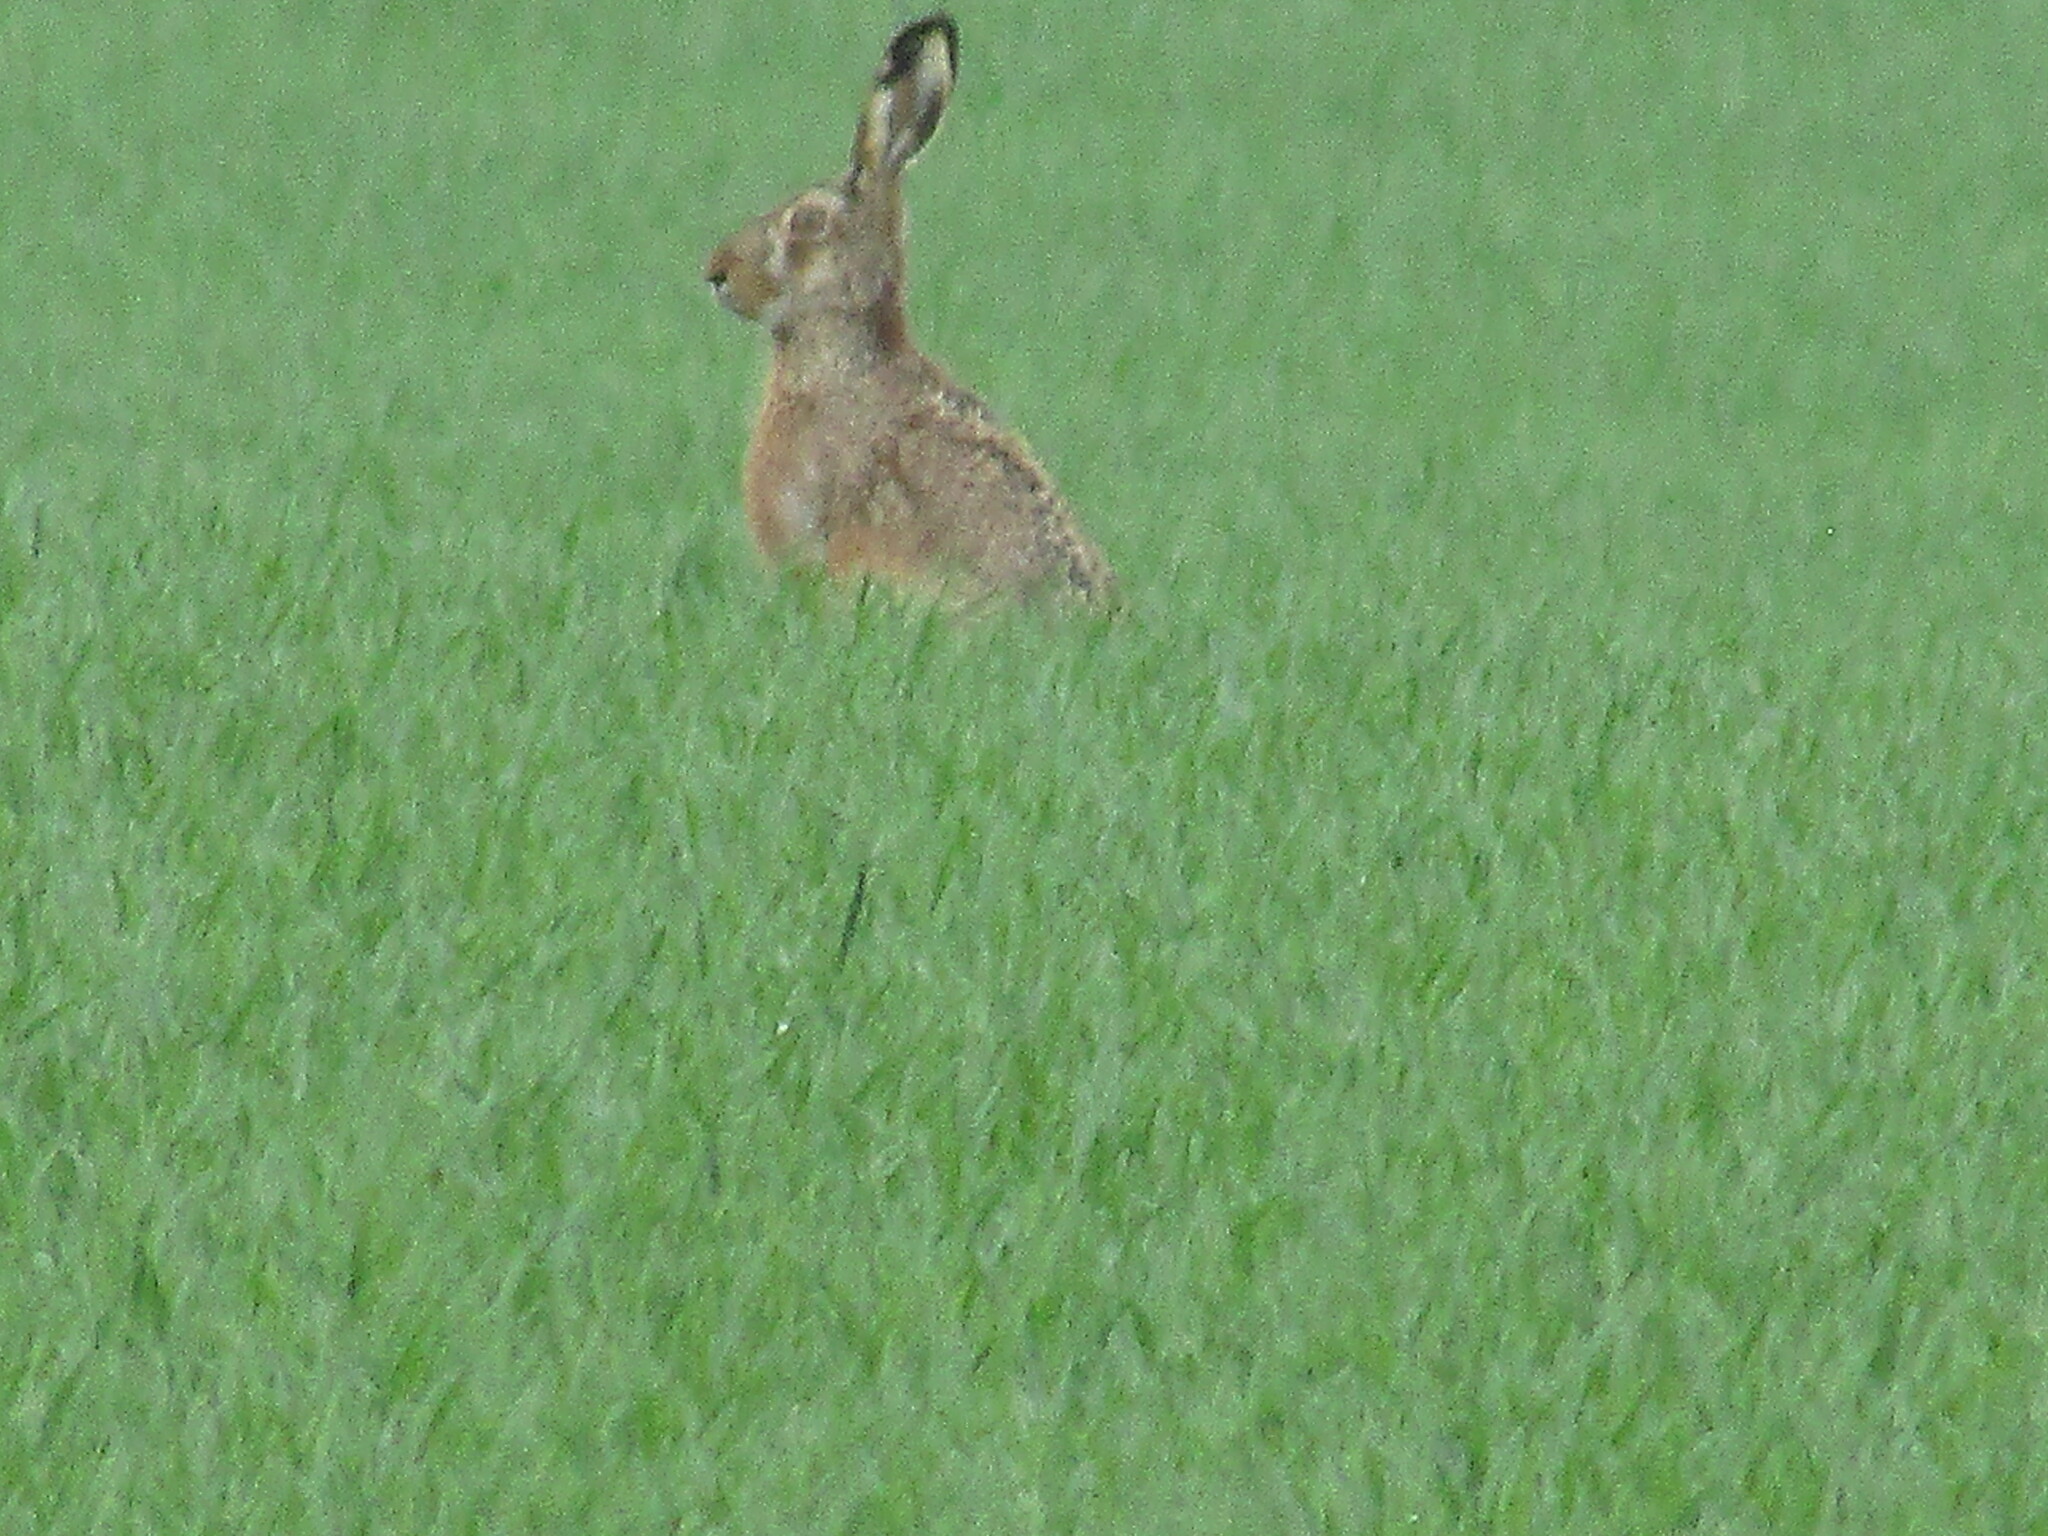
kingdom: Animalia
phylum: Chordata
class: Mammalia
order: Lagomorpha
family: Leporidae
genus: Lepus
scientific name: Lepus europaeus
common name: European hare
